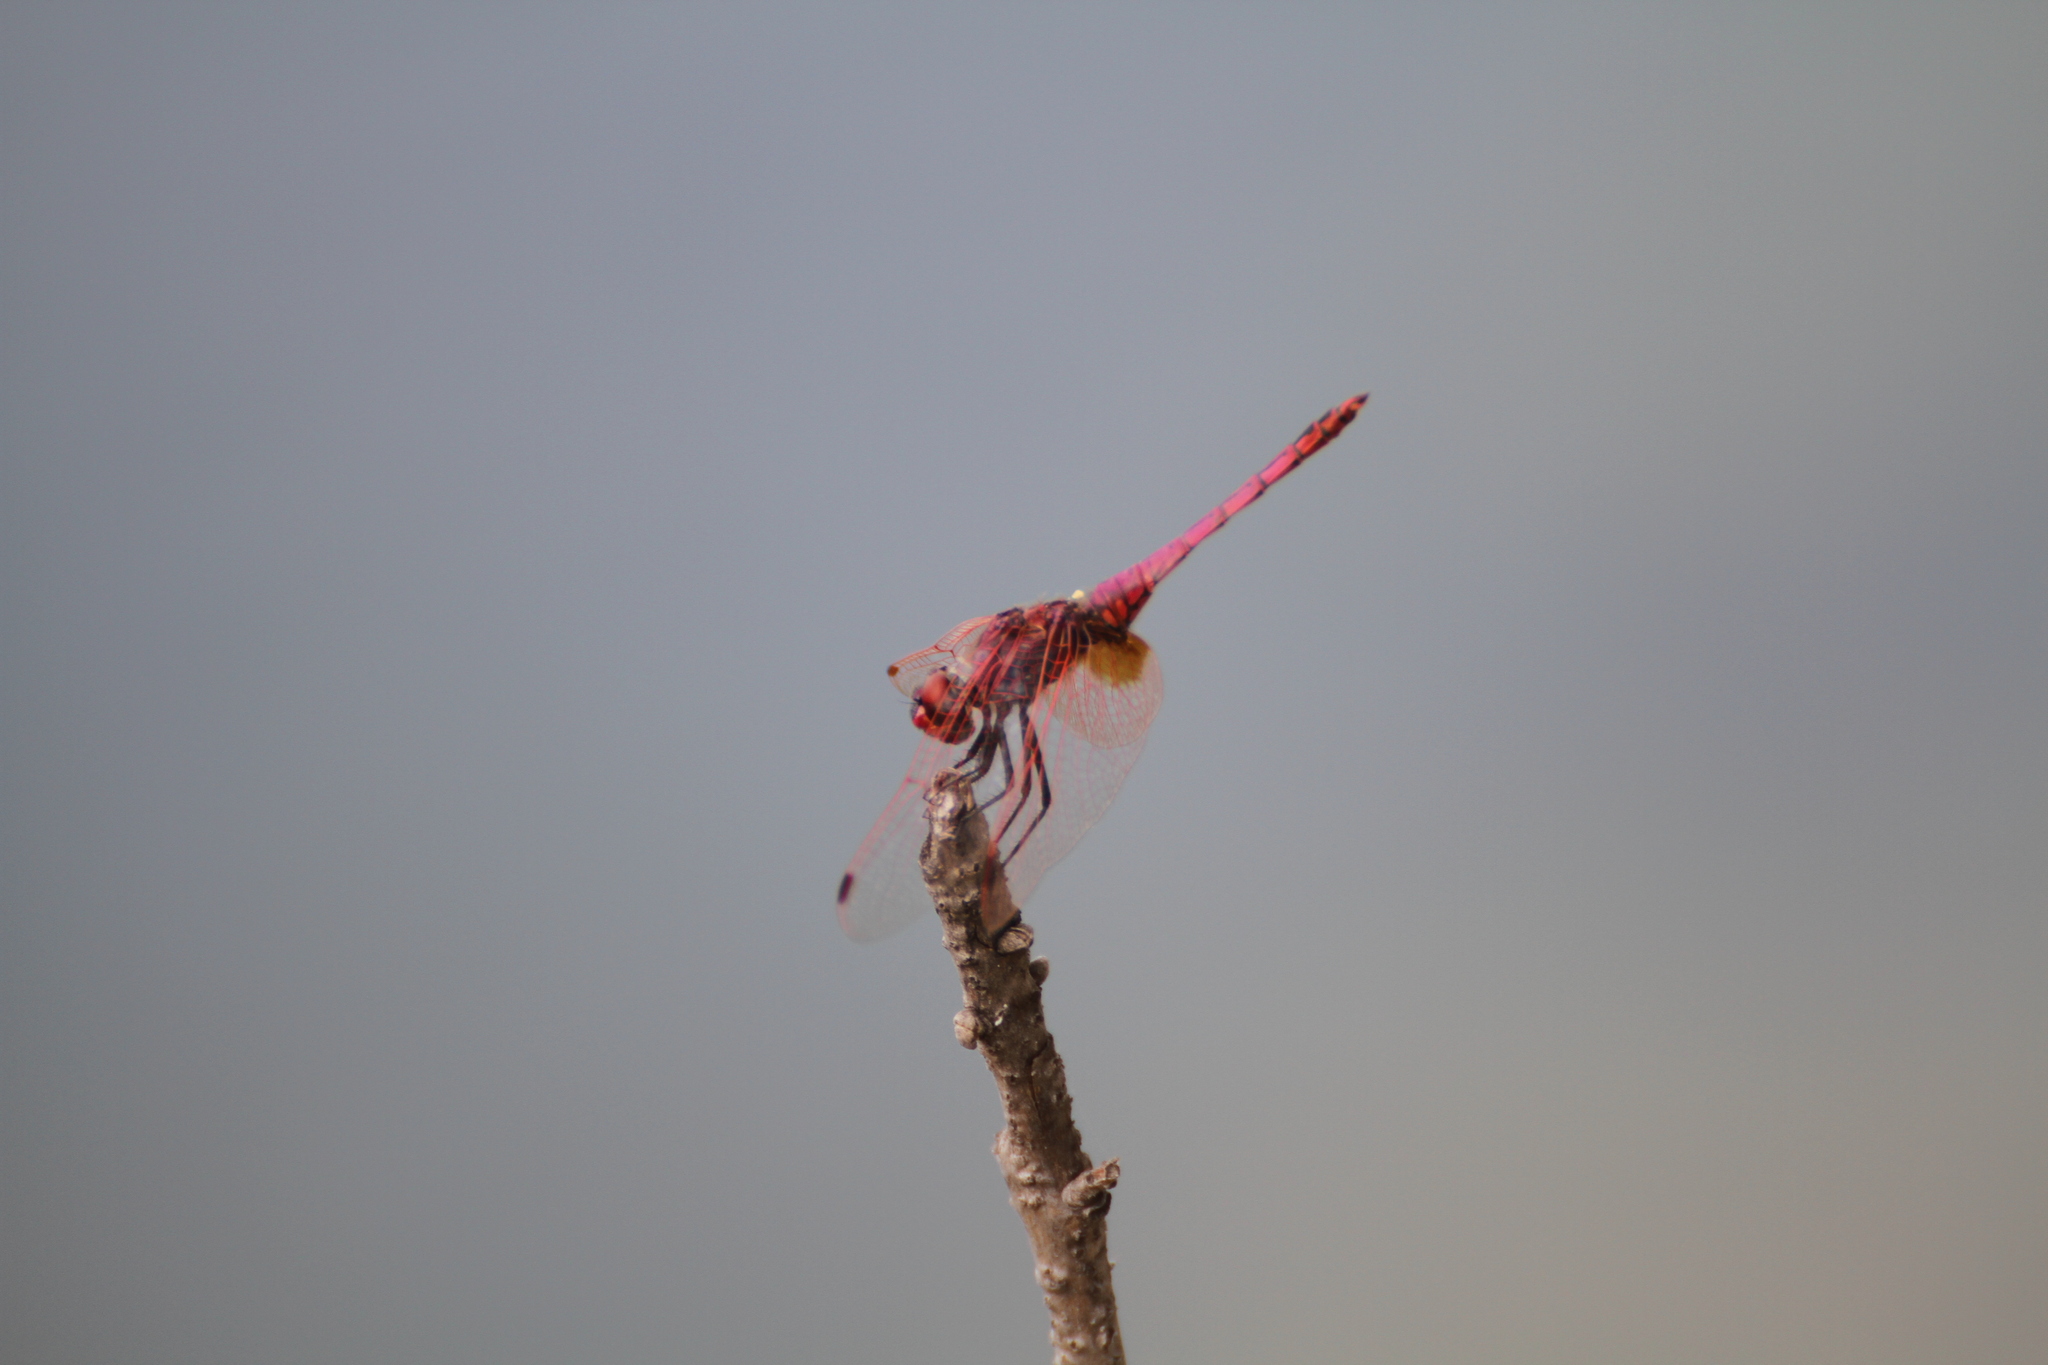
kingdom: Animalia
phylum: Arthropoda
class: Insecta
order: Odonata
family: Libellulidae
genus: Trithemis
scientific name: Trithemis annulata
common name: Violet dropwing
